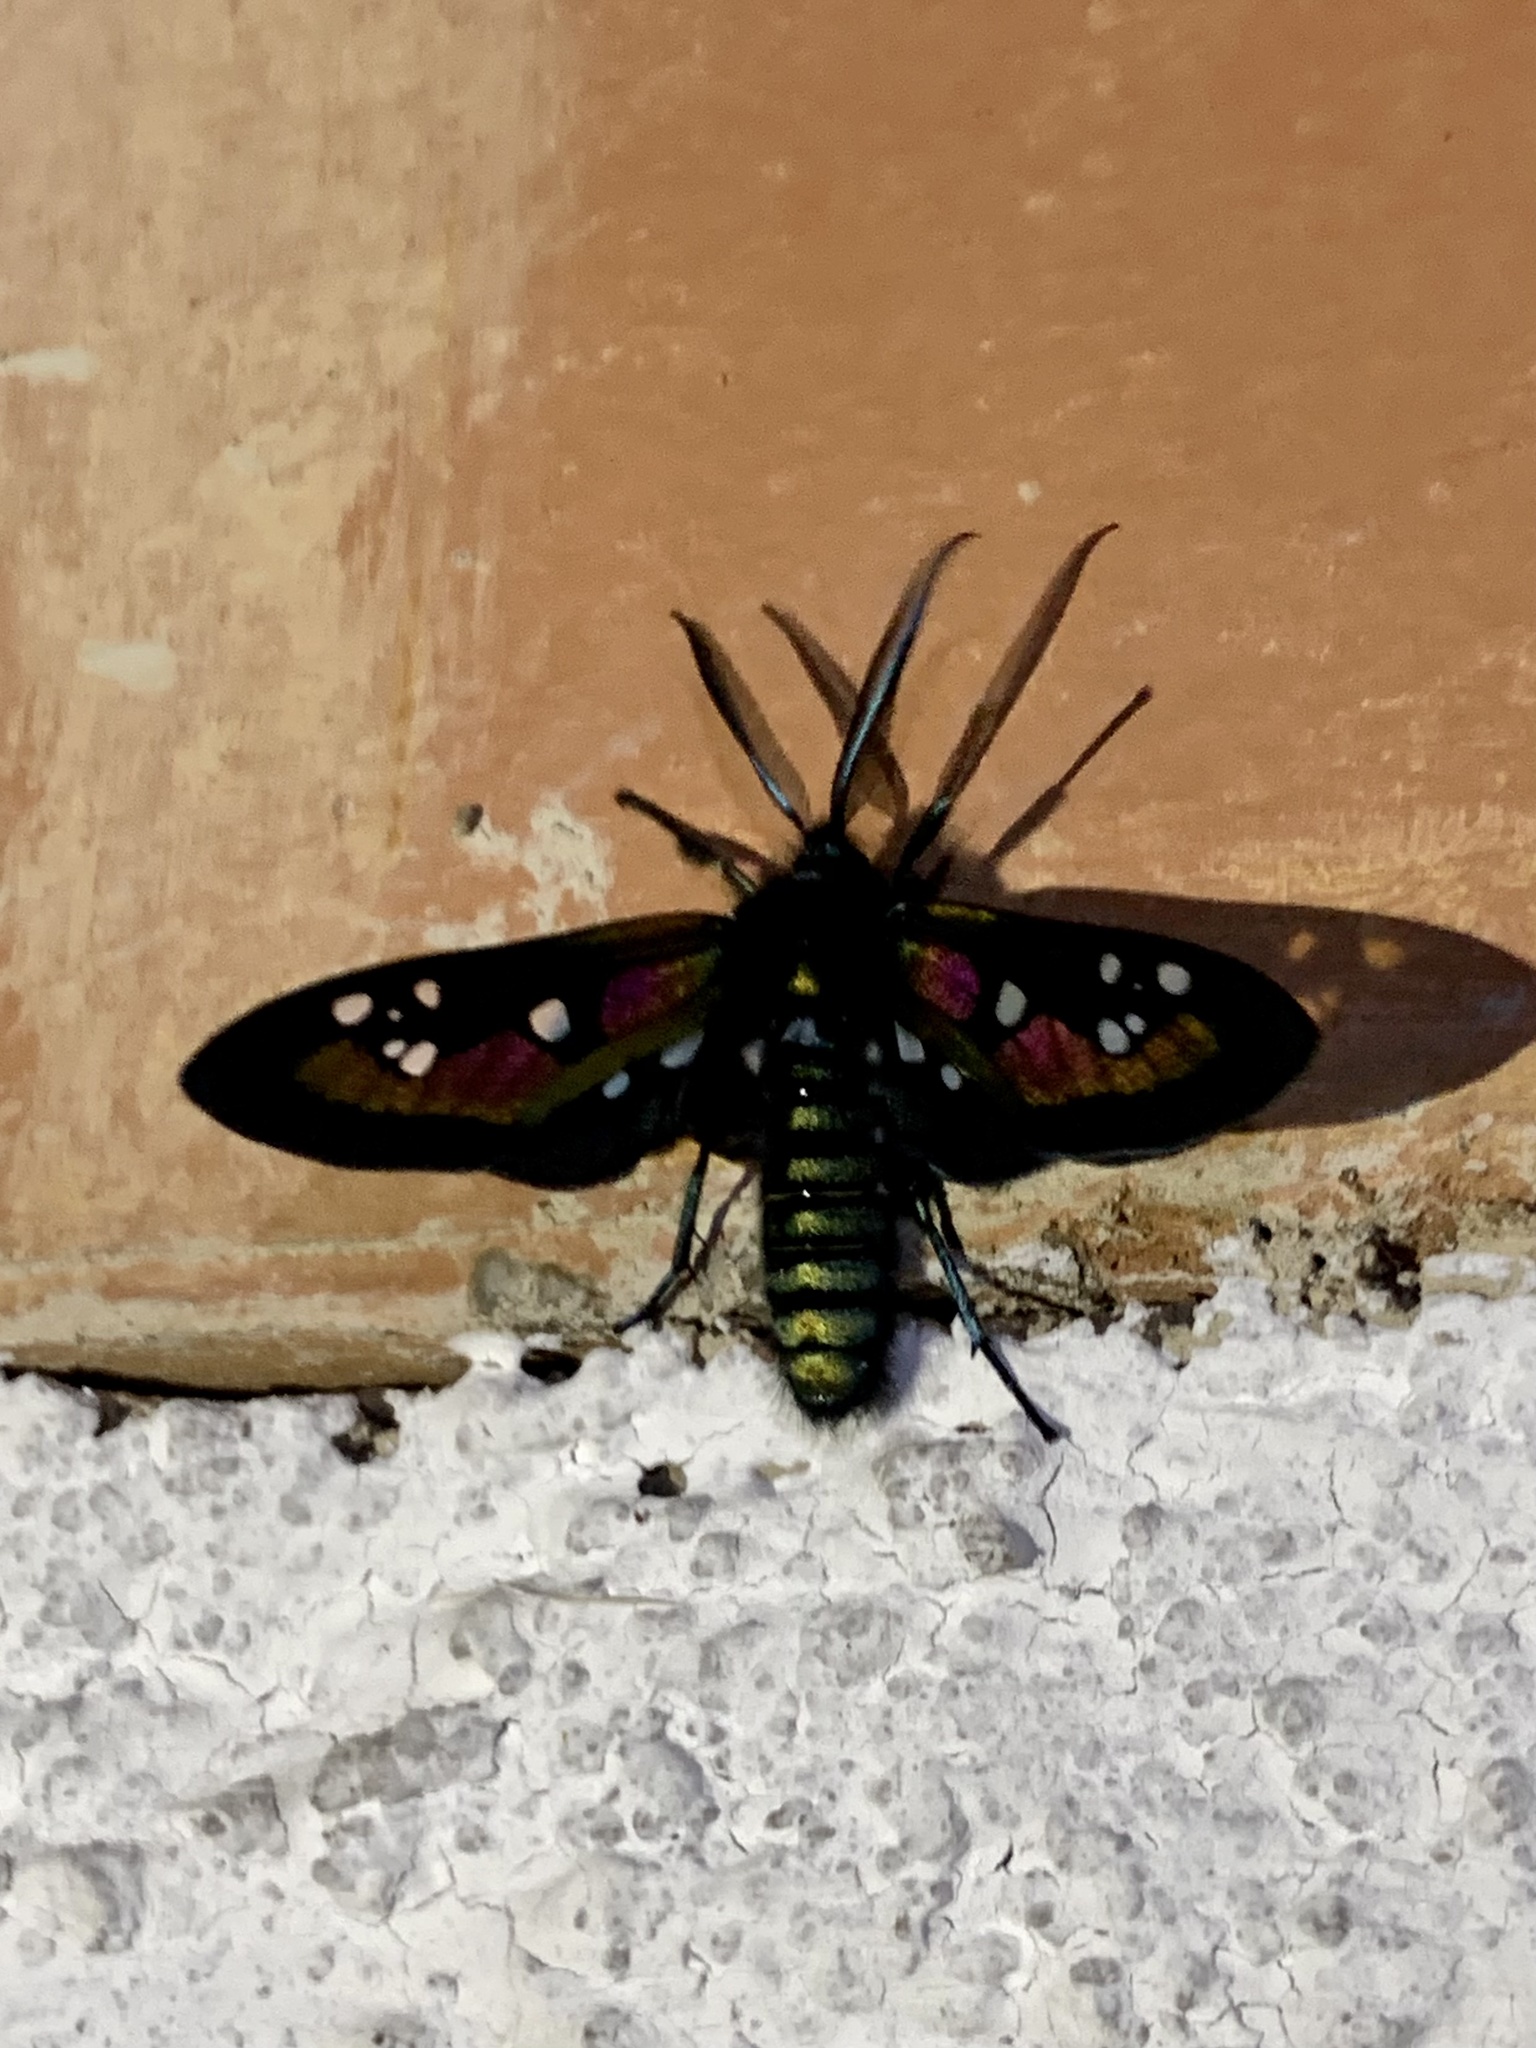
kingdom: Animalia
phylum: Arthropoda
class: Insecta
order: Lepidoptera
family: Erebidae
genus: Chrysocale
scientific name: Chrysocale regalis
